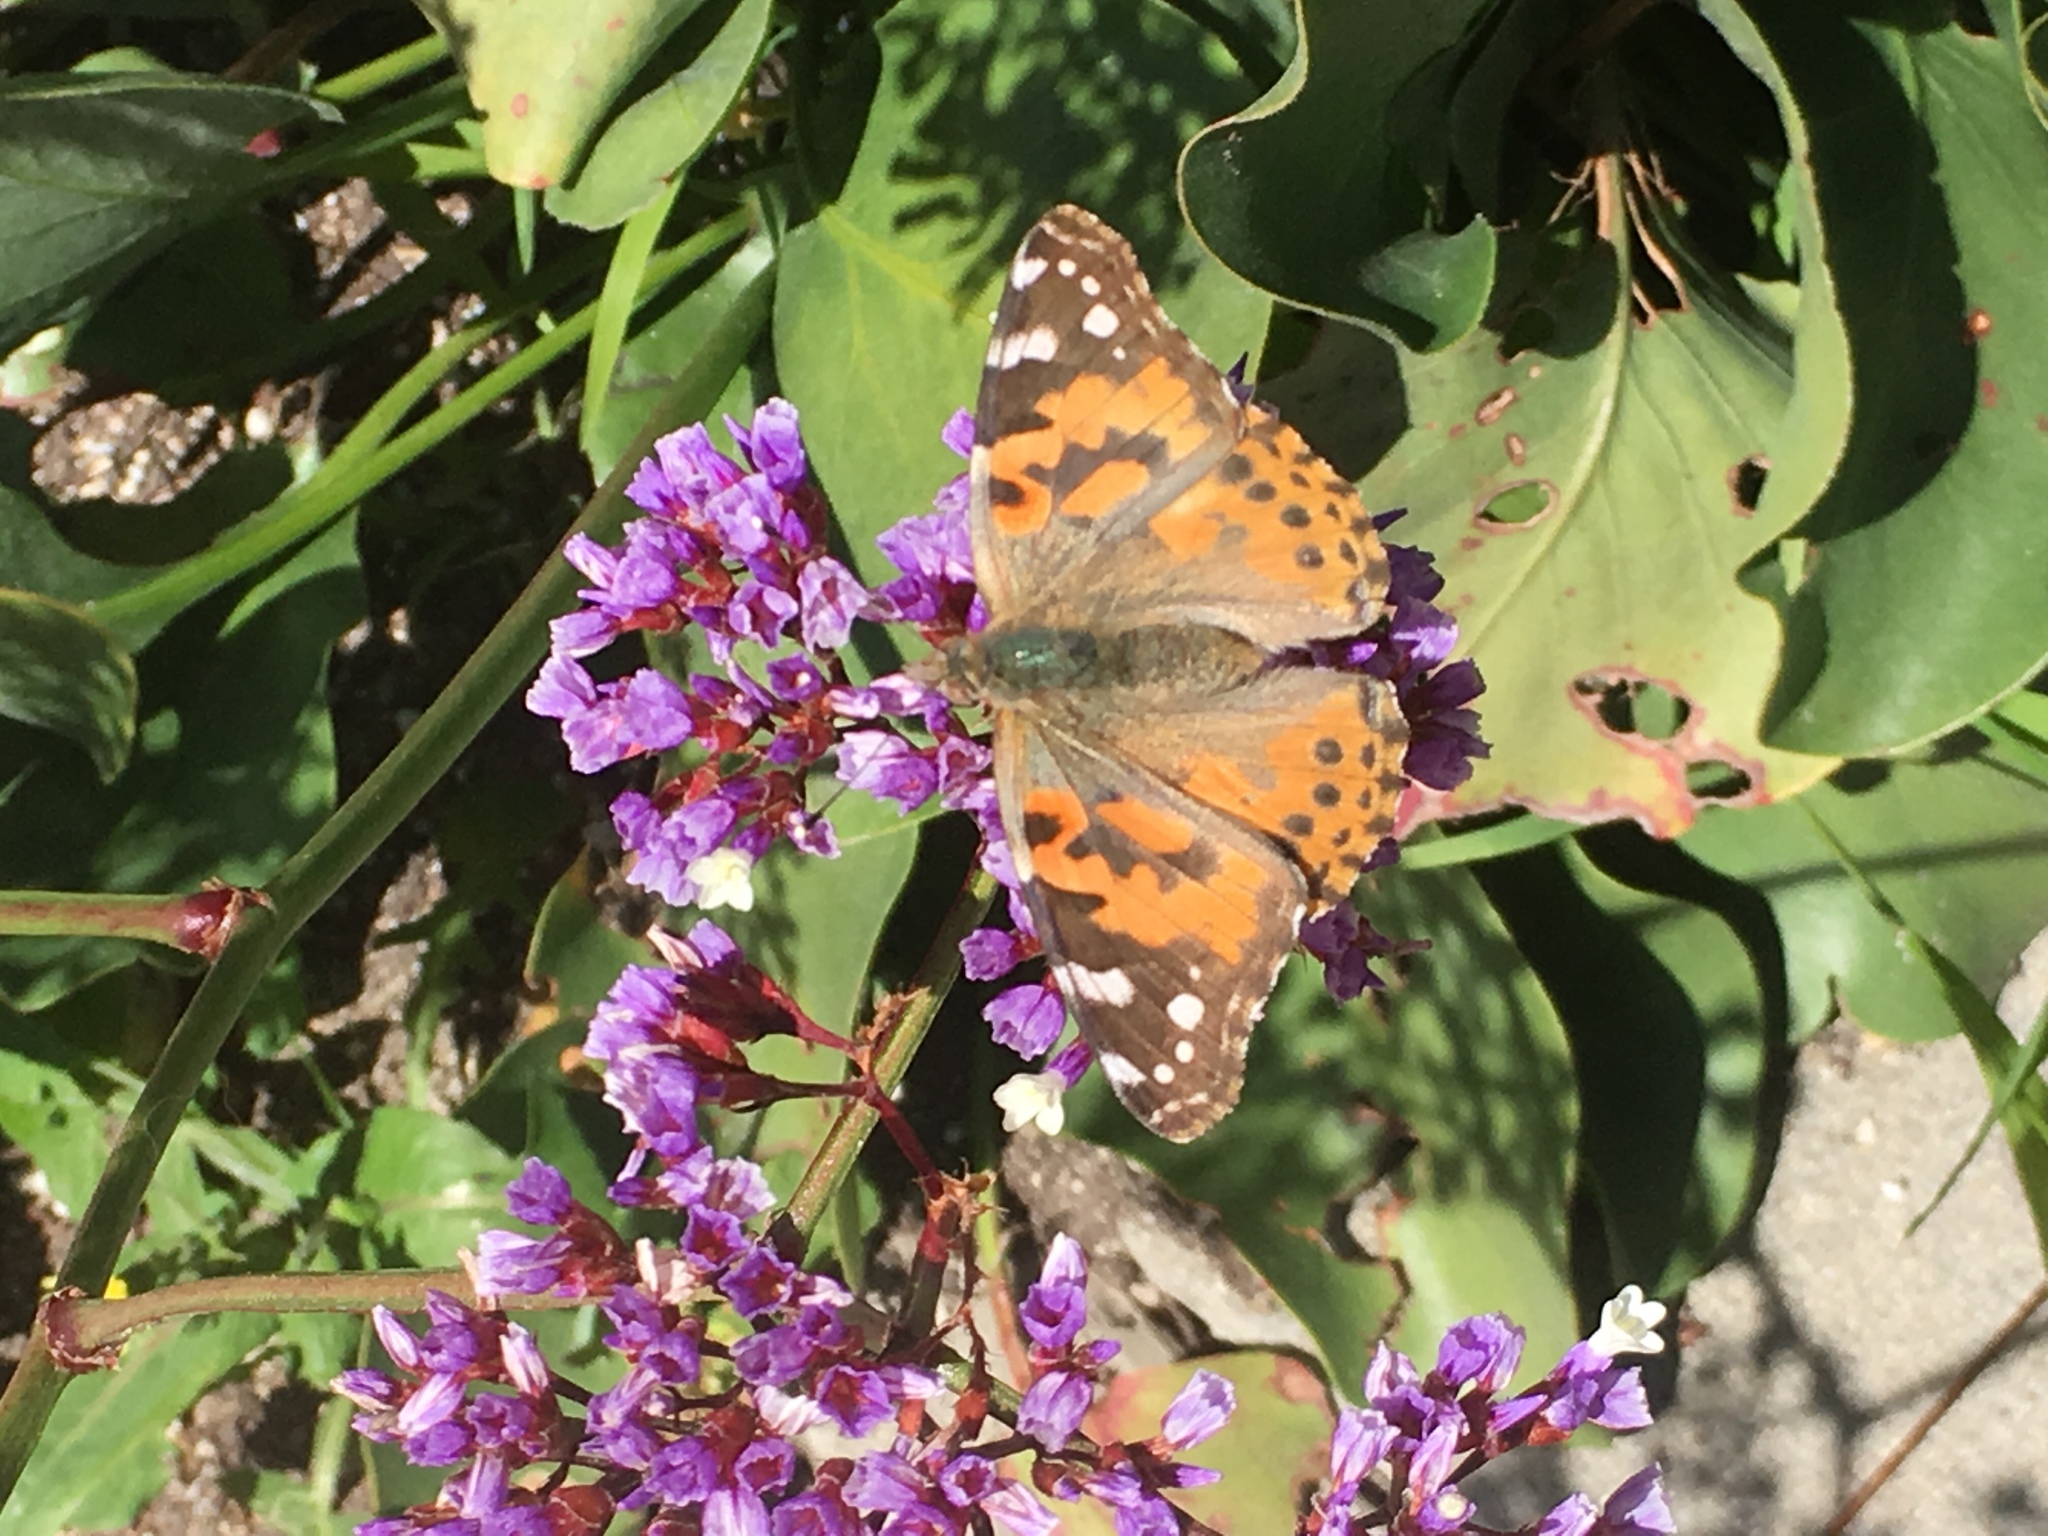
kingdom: Animalia
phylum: Arthropoda
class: Insecta
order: Lepidoptera
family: Nymphalidae
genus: Vanessa
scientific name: Vanessa cardui
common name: Painted lady
